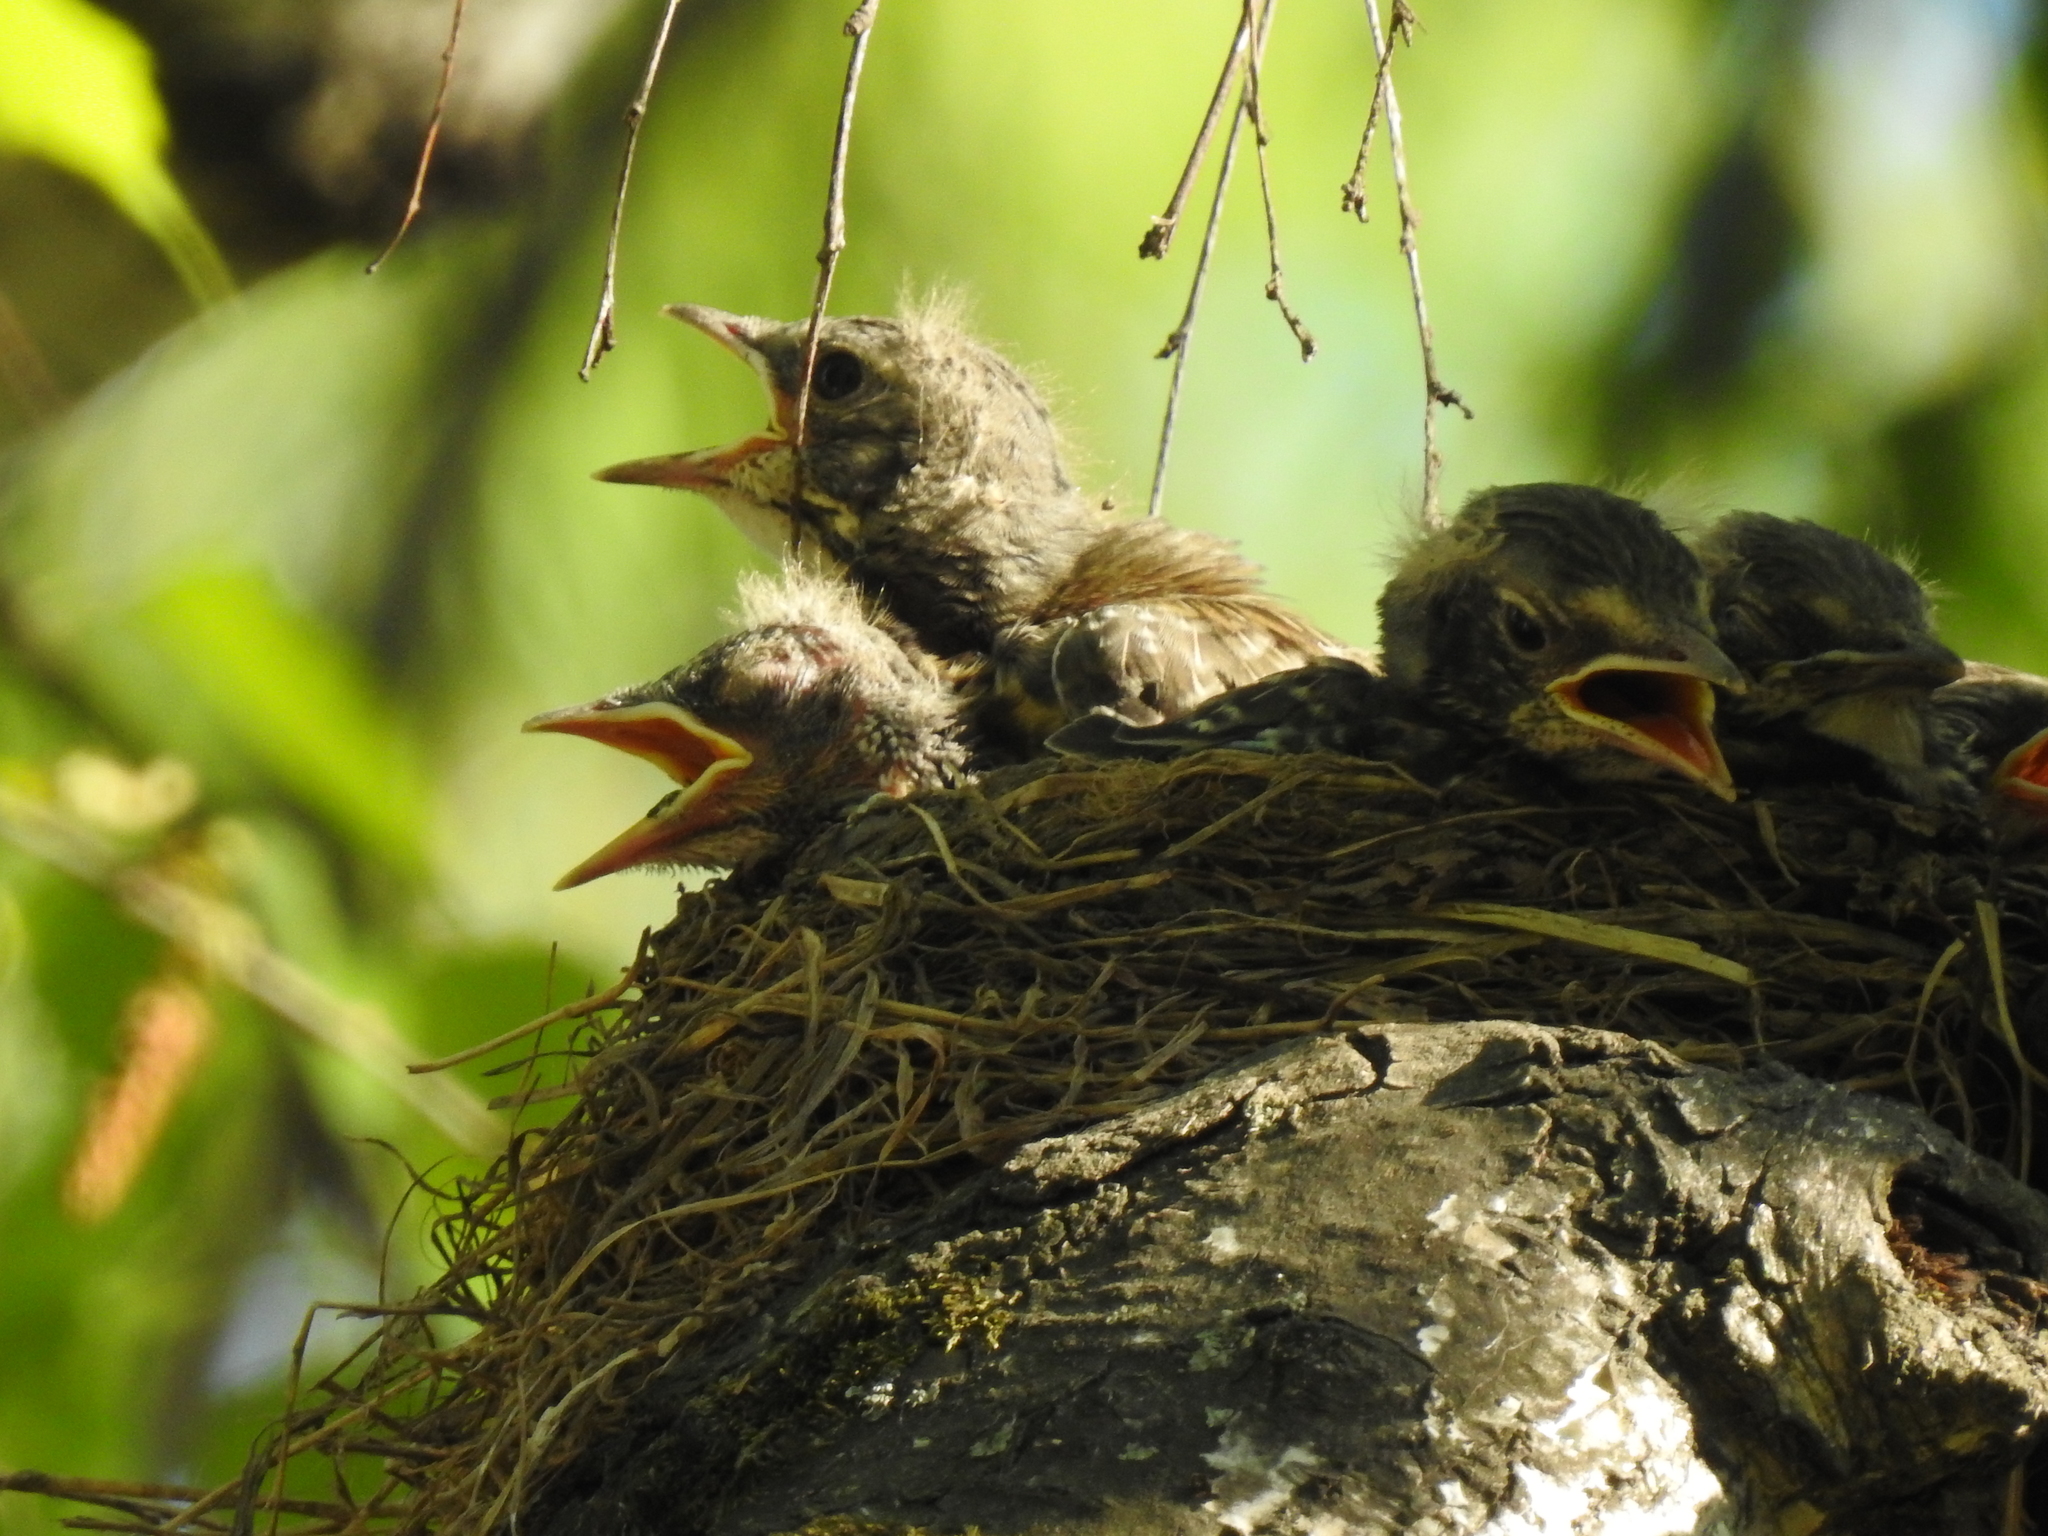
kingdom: Animalia
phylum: Chordata
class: Aves
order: Passeriformes
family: Turdidae
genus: Turdus
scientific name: Turdus pilaris
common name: Fieldfare
